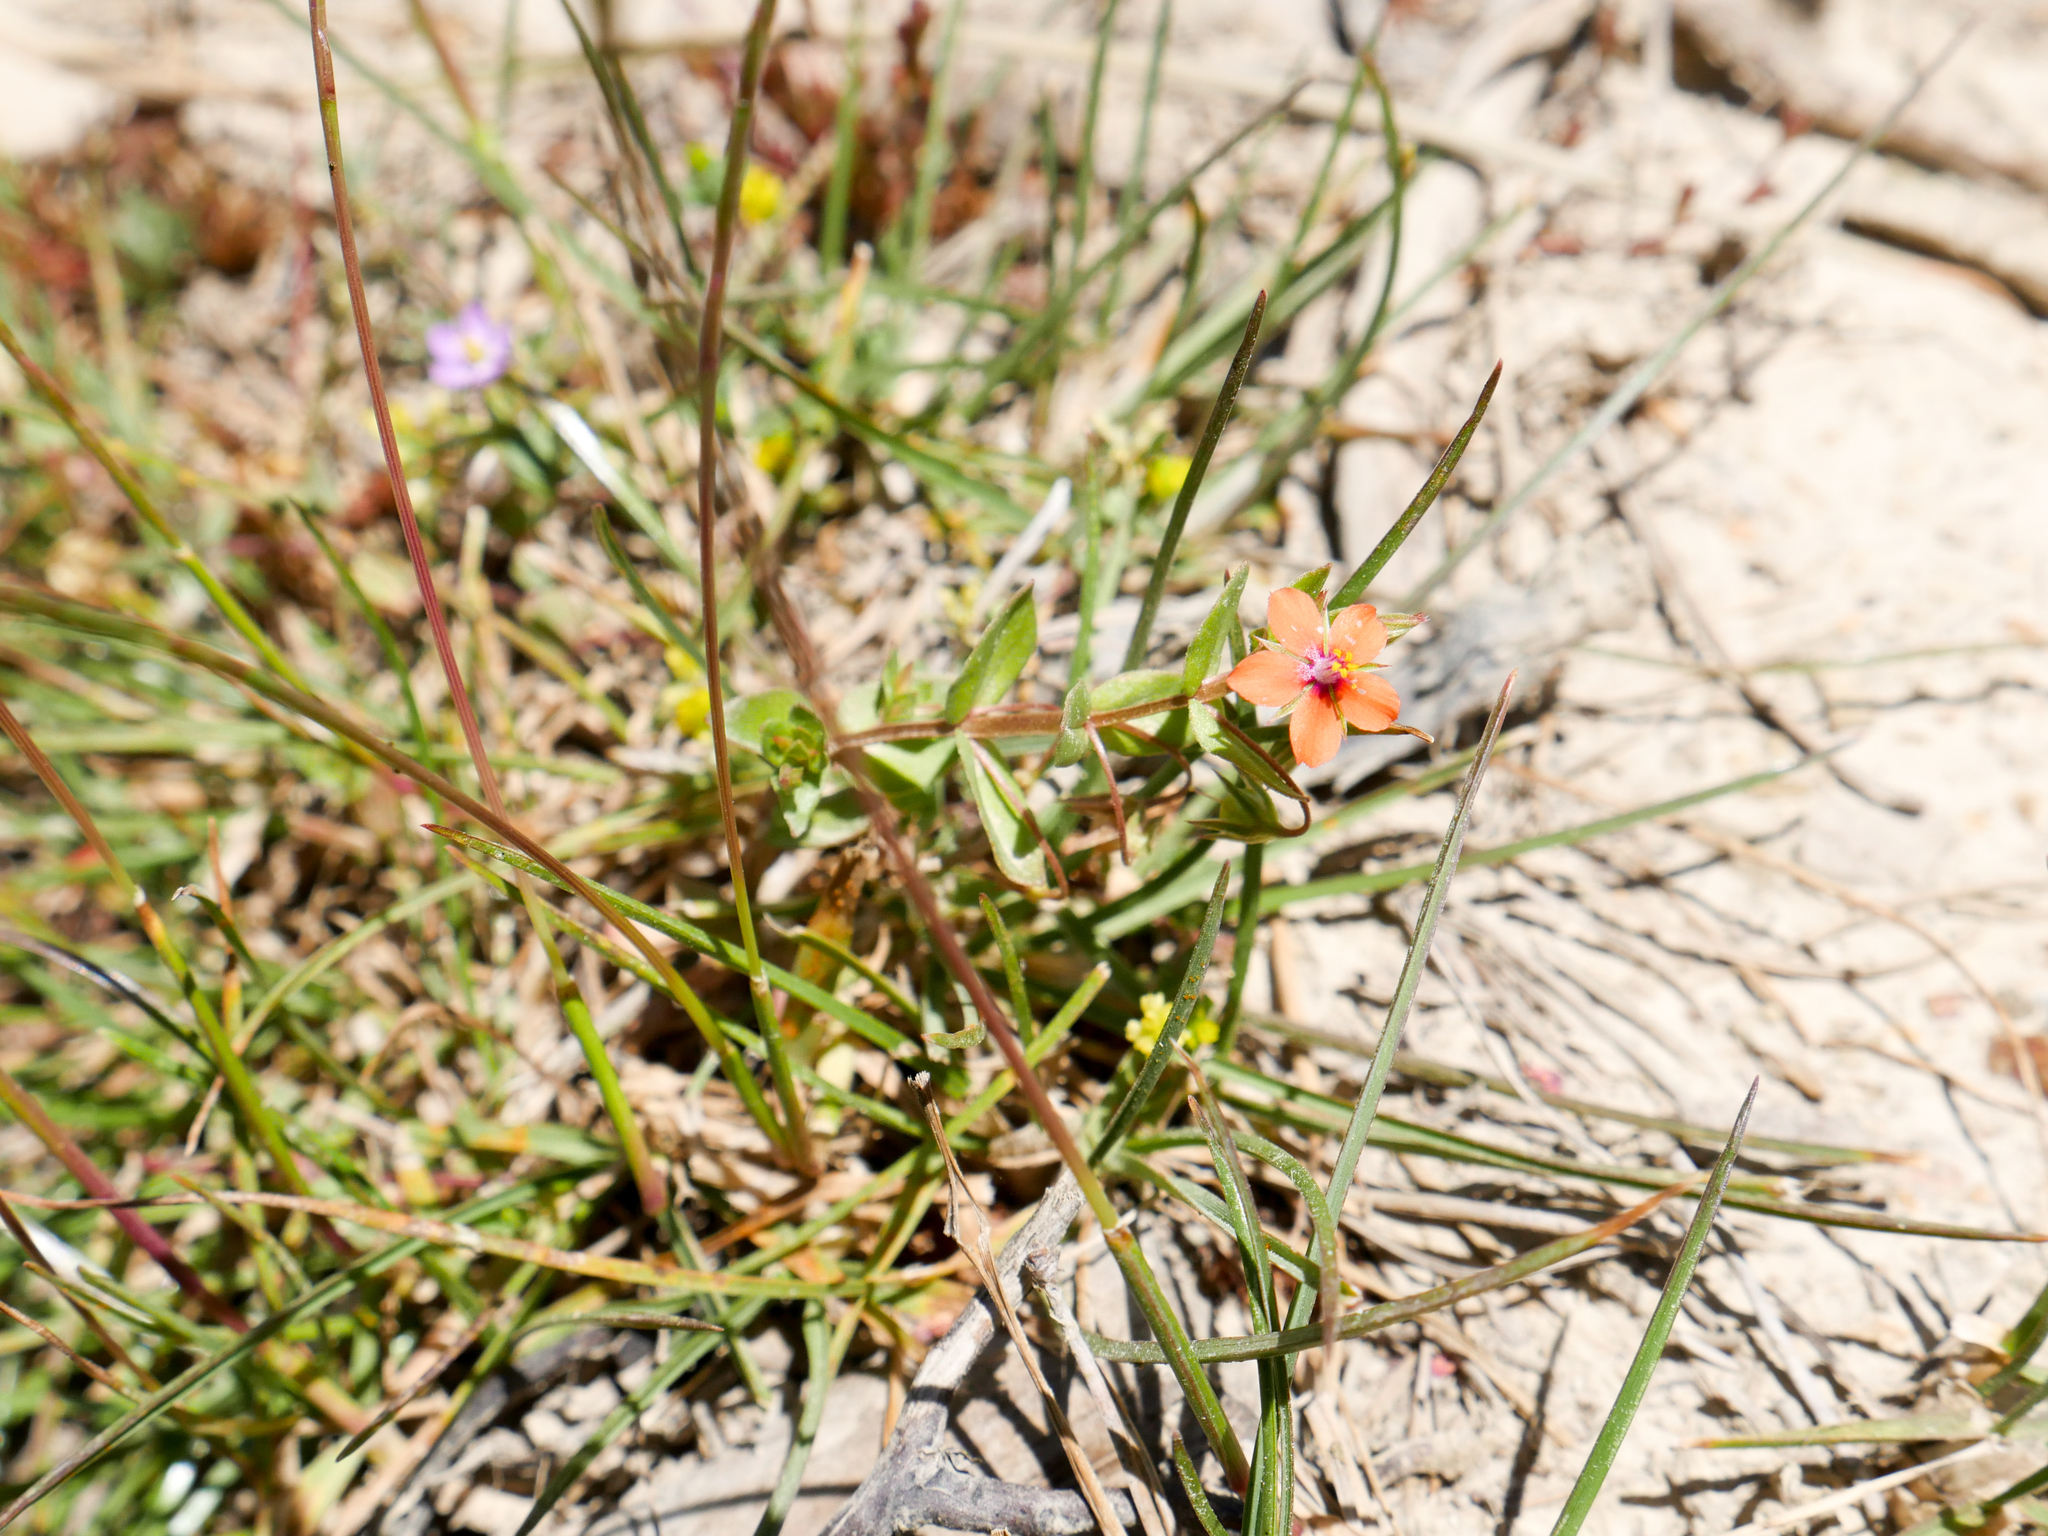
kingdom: Plantae
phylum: Tracheophyta
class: Magnoliopsida
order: Ericales
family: Primulaceae
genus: Lysimachia
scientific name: Lysimachia arvensis
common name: Scarlet pimpernel
